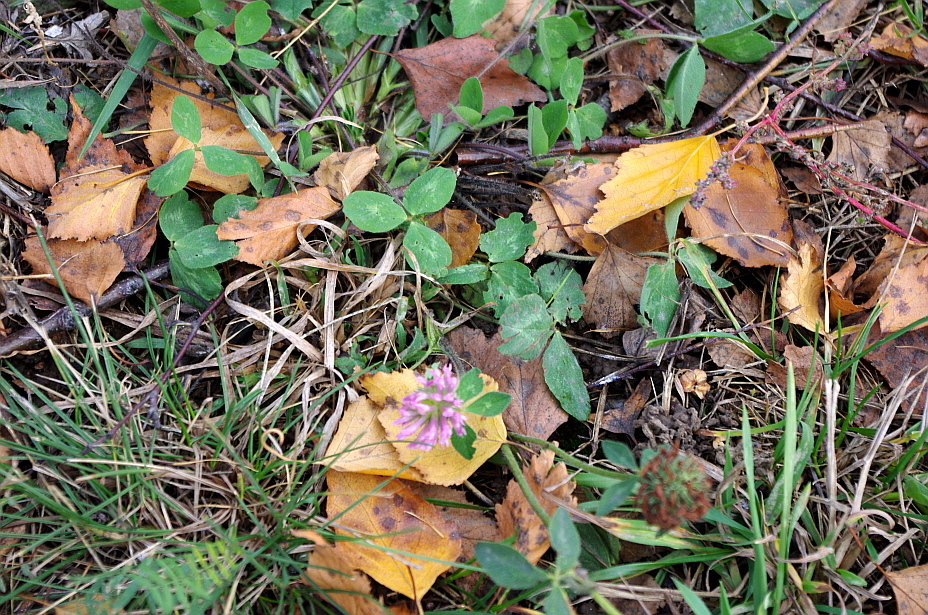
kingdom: Plantae
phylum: Tracheophyta
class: Magnoliopsida
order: Fabales
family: Fabaceae
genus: Trifolium
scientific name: Trifolium pratense
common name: Red clover
